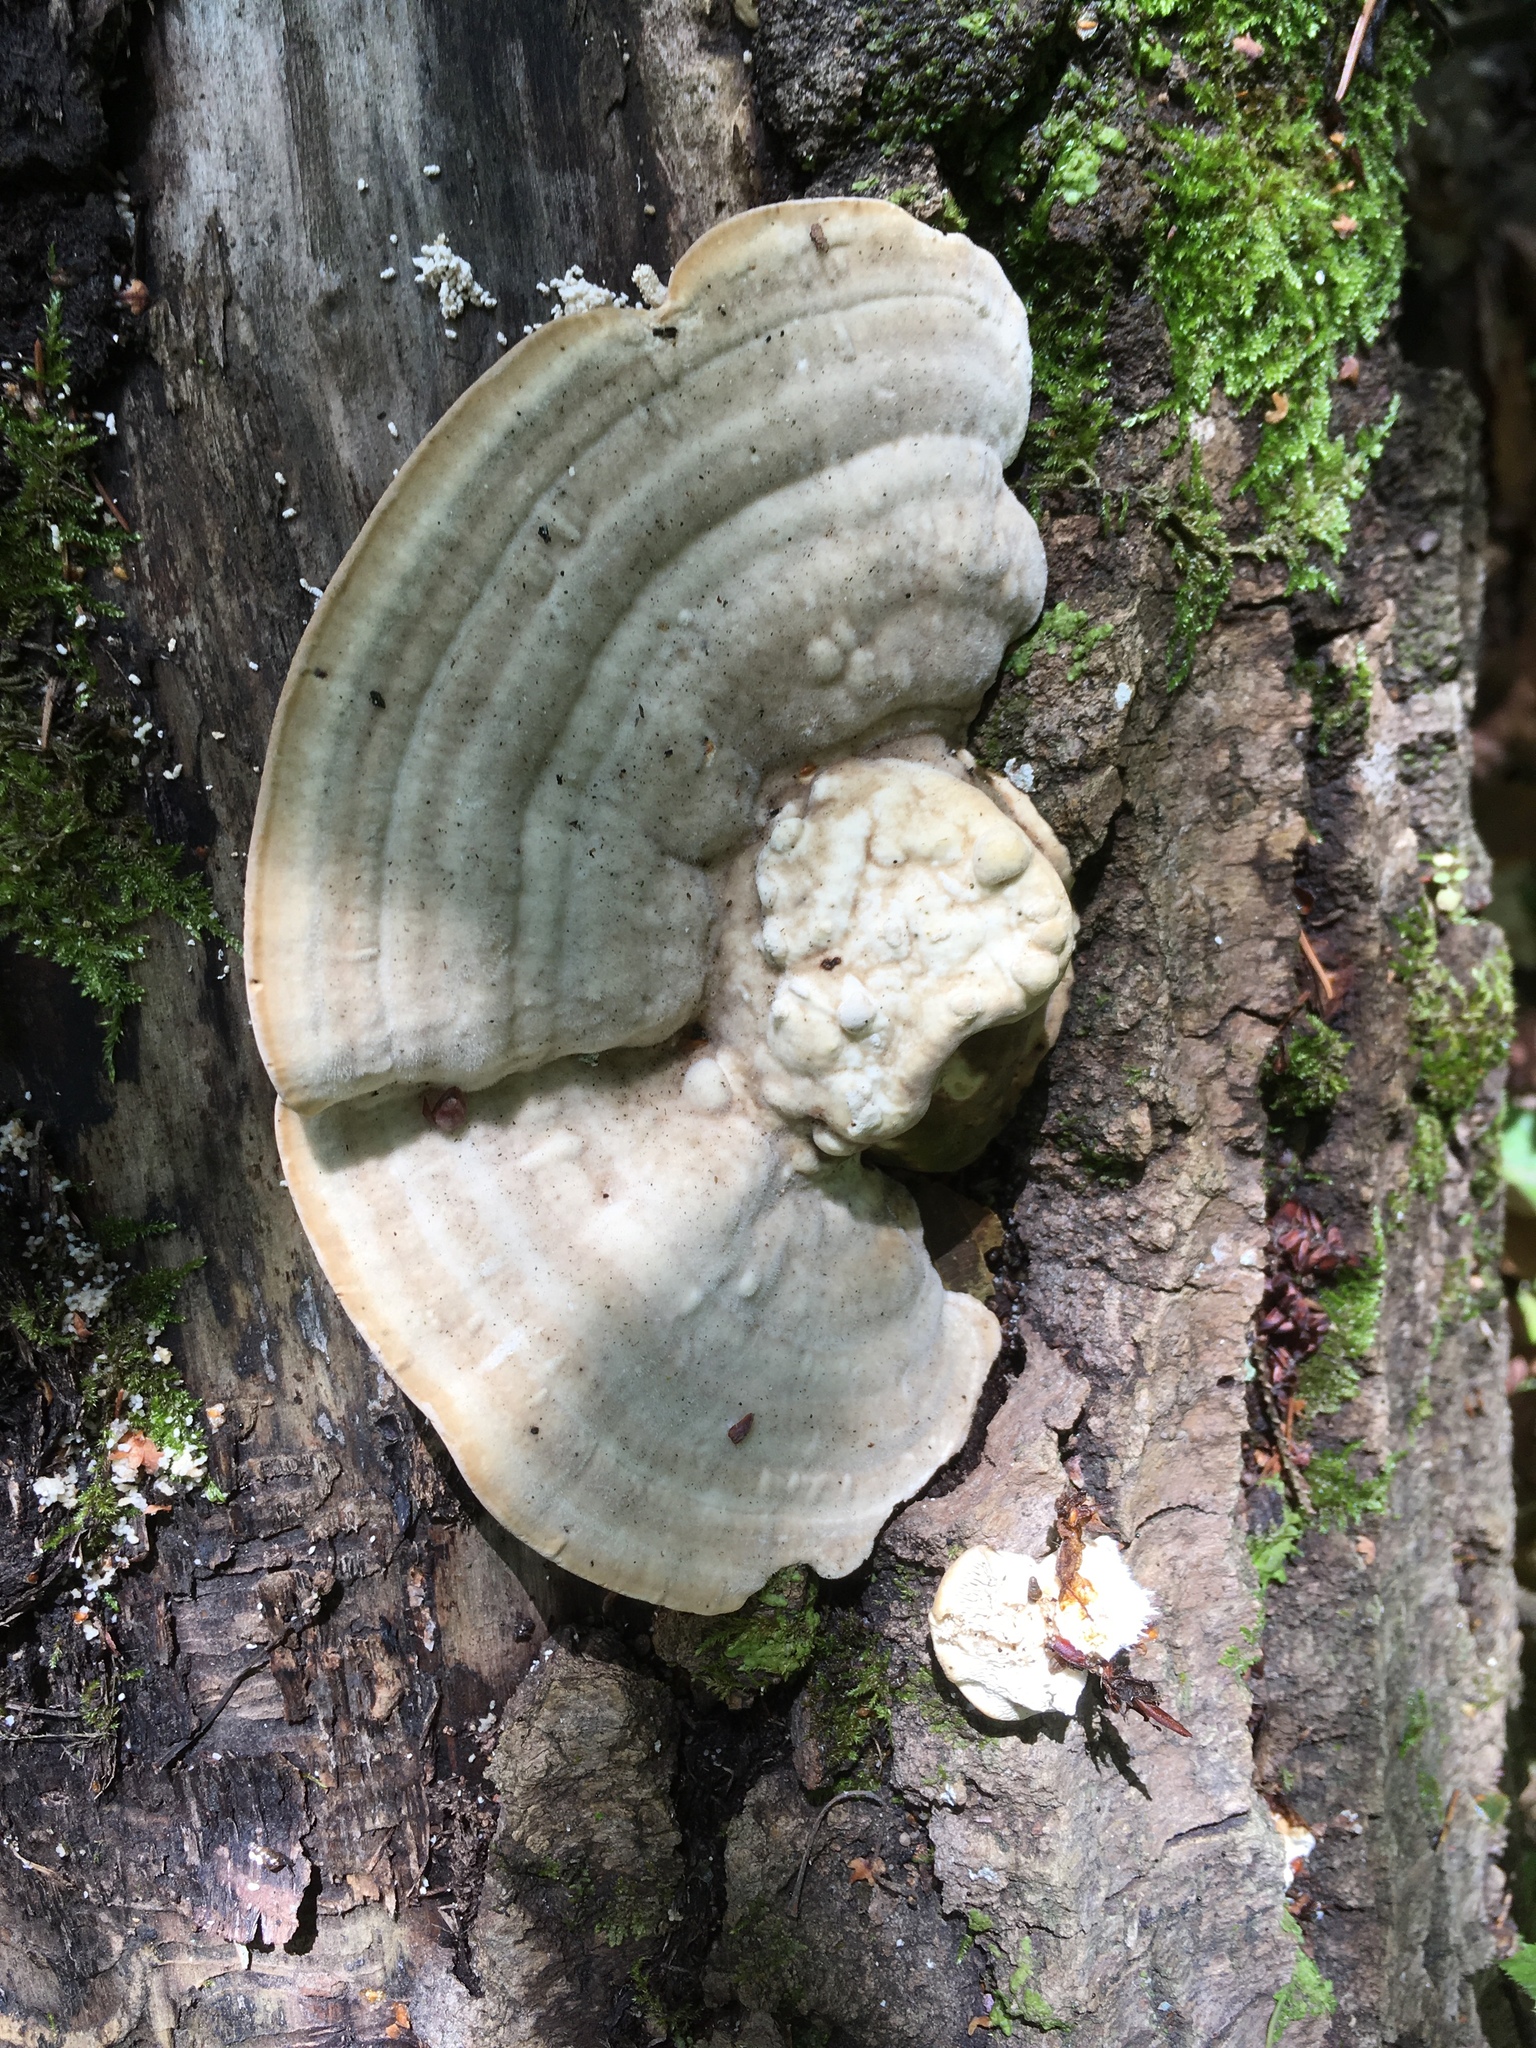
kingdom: Fungi
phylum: Basidiomycota
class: Agaricomycetes
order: Polyporales
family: Polyporaceae
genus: Trametes
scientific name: Trametes gibbosa
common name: Lumpy bracket
